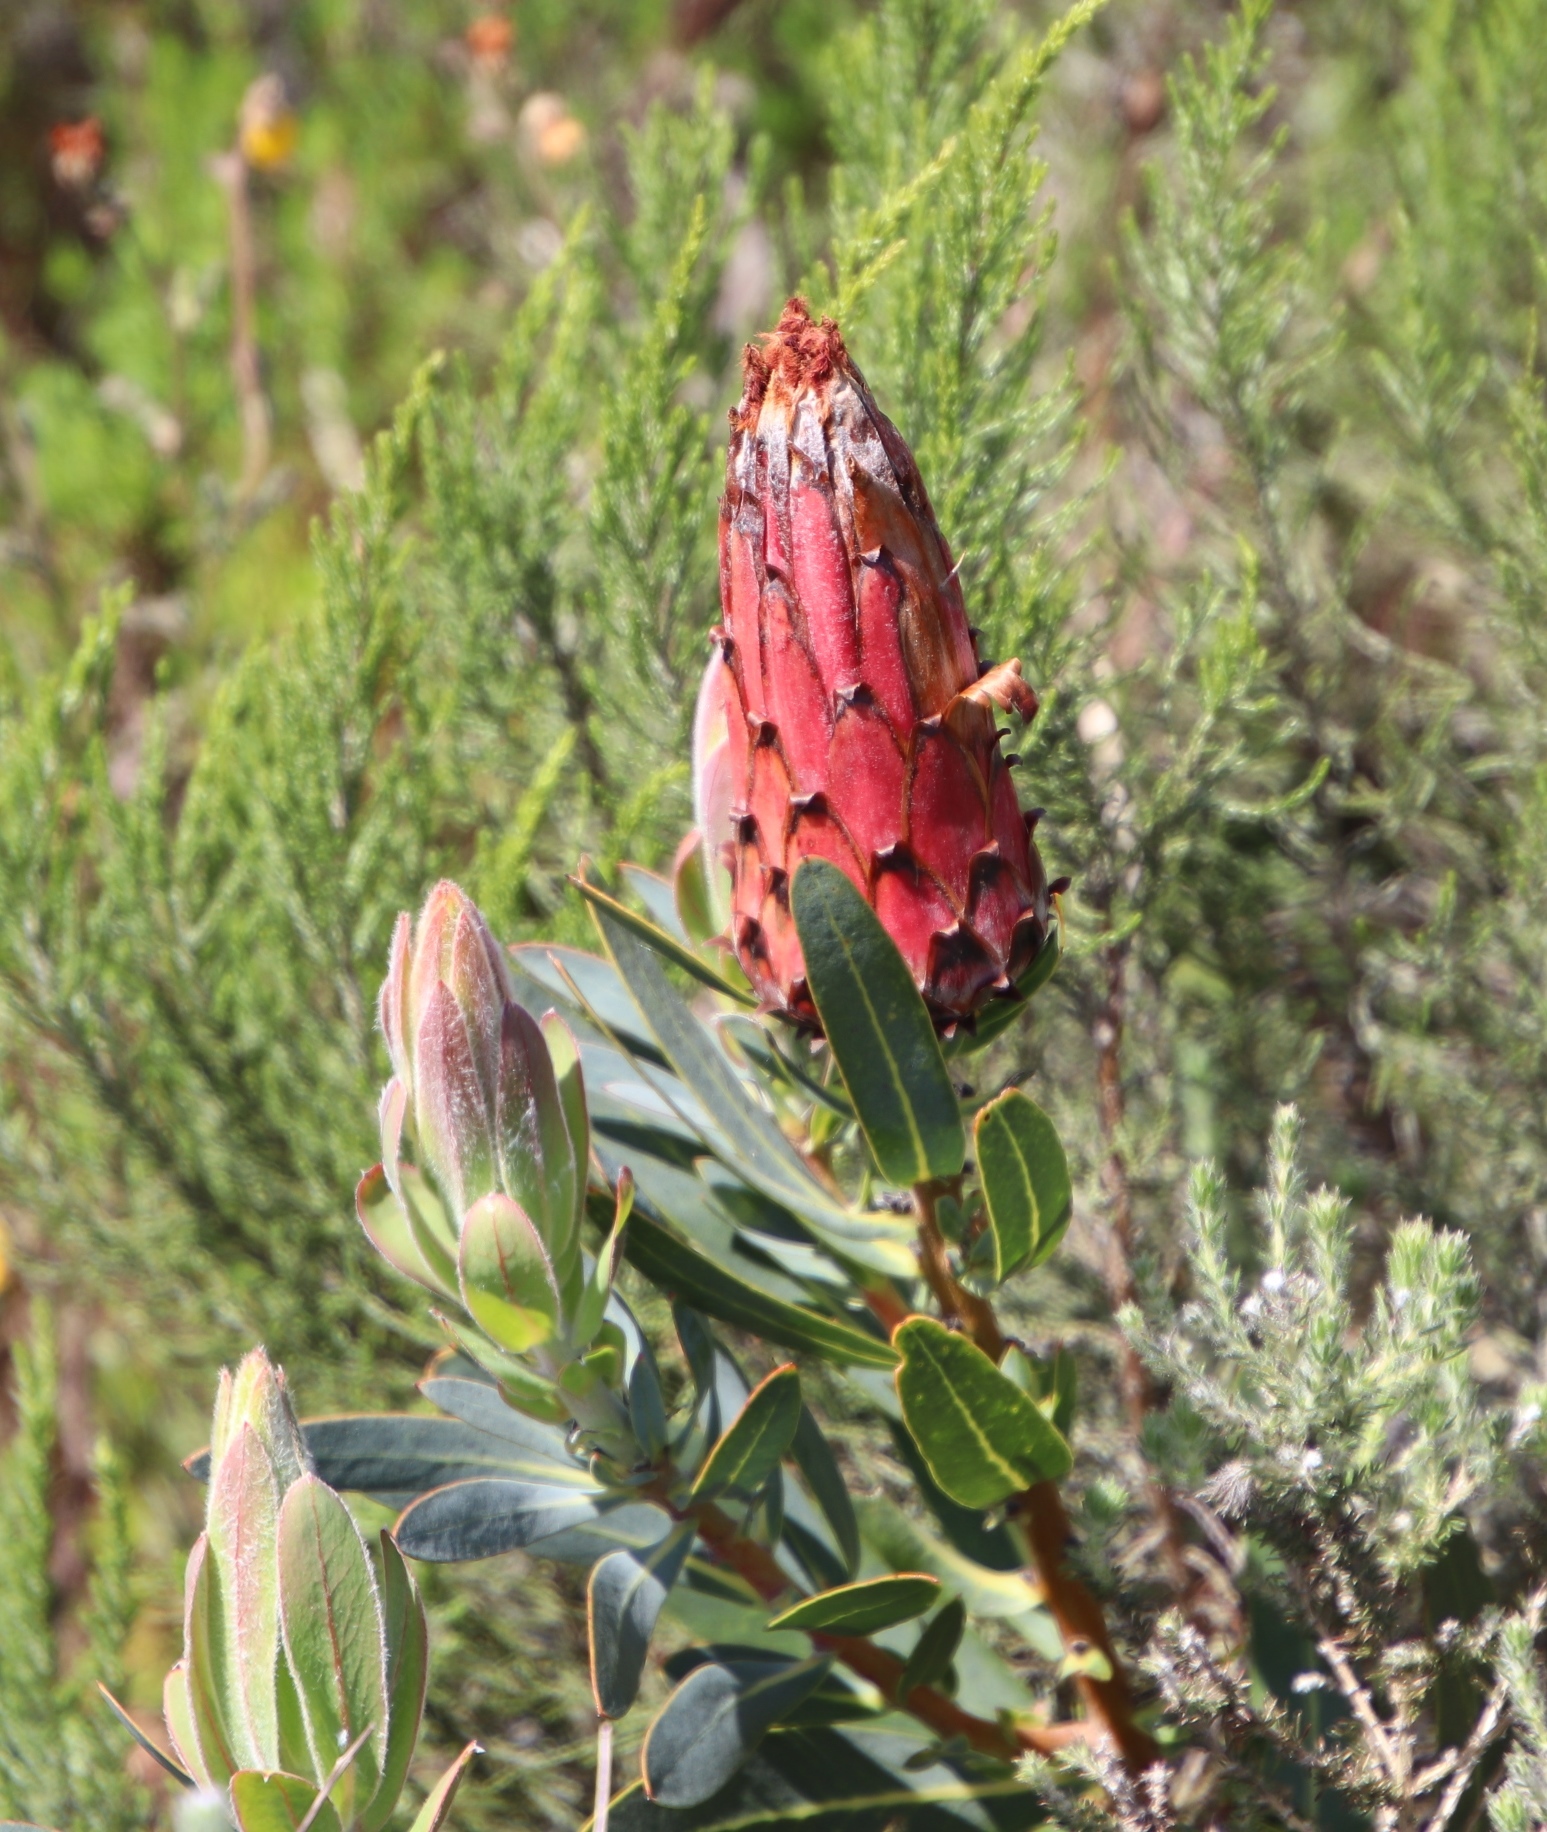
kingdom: Plantae
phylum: Tracheophyta
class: Magnoliopsida
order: Proteales
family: Proteaceae
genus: Protea
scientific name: Protea burchellii
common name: Burchell's sugarbush
